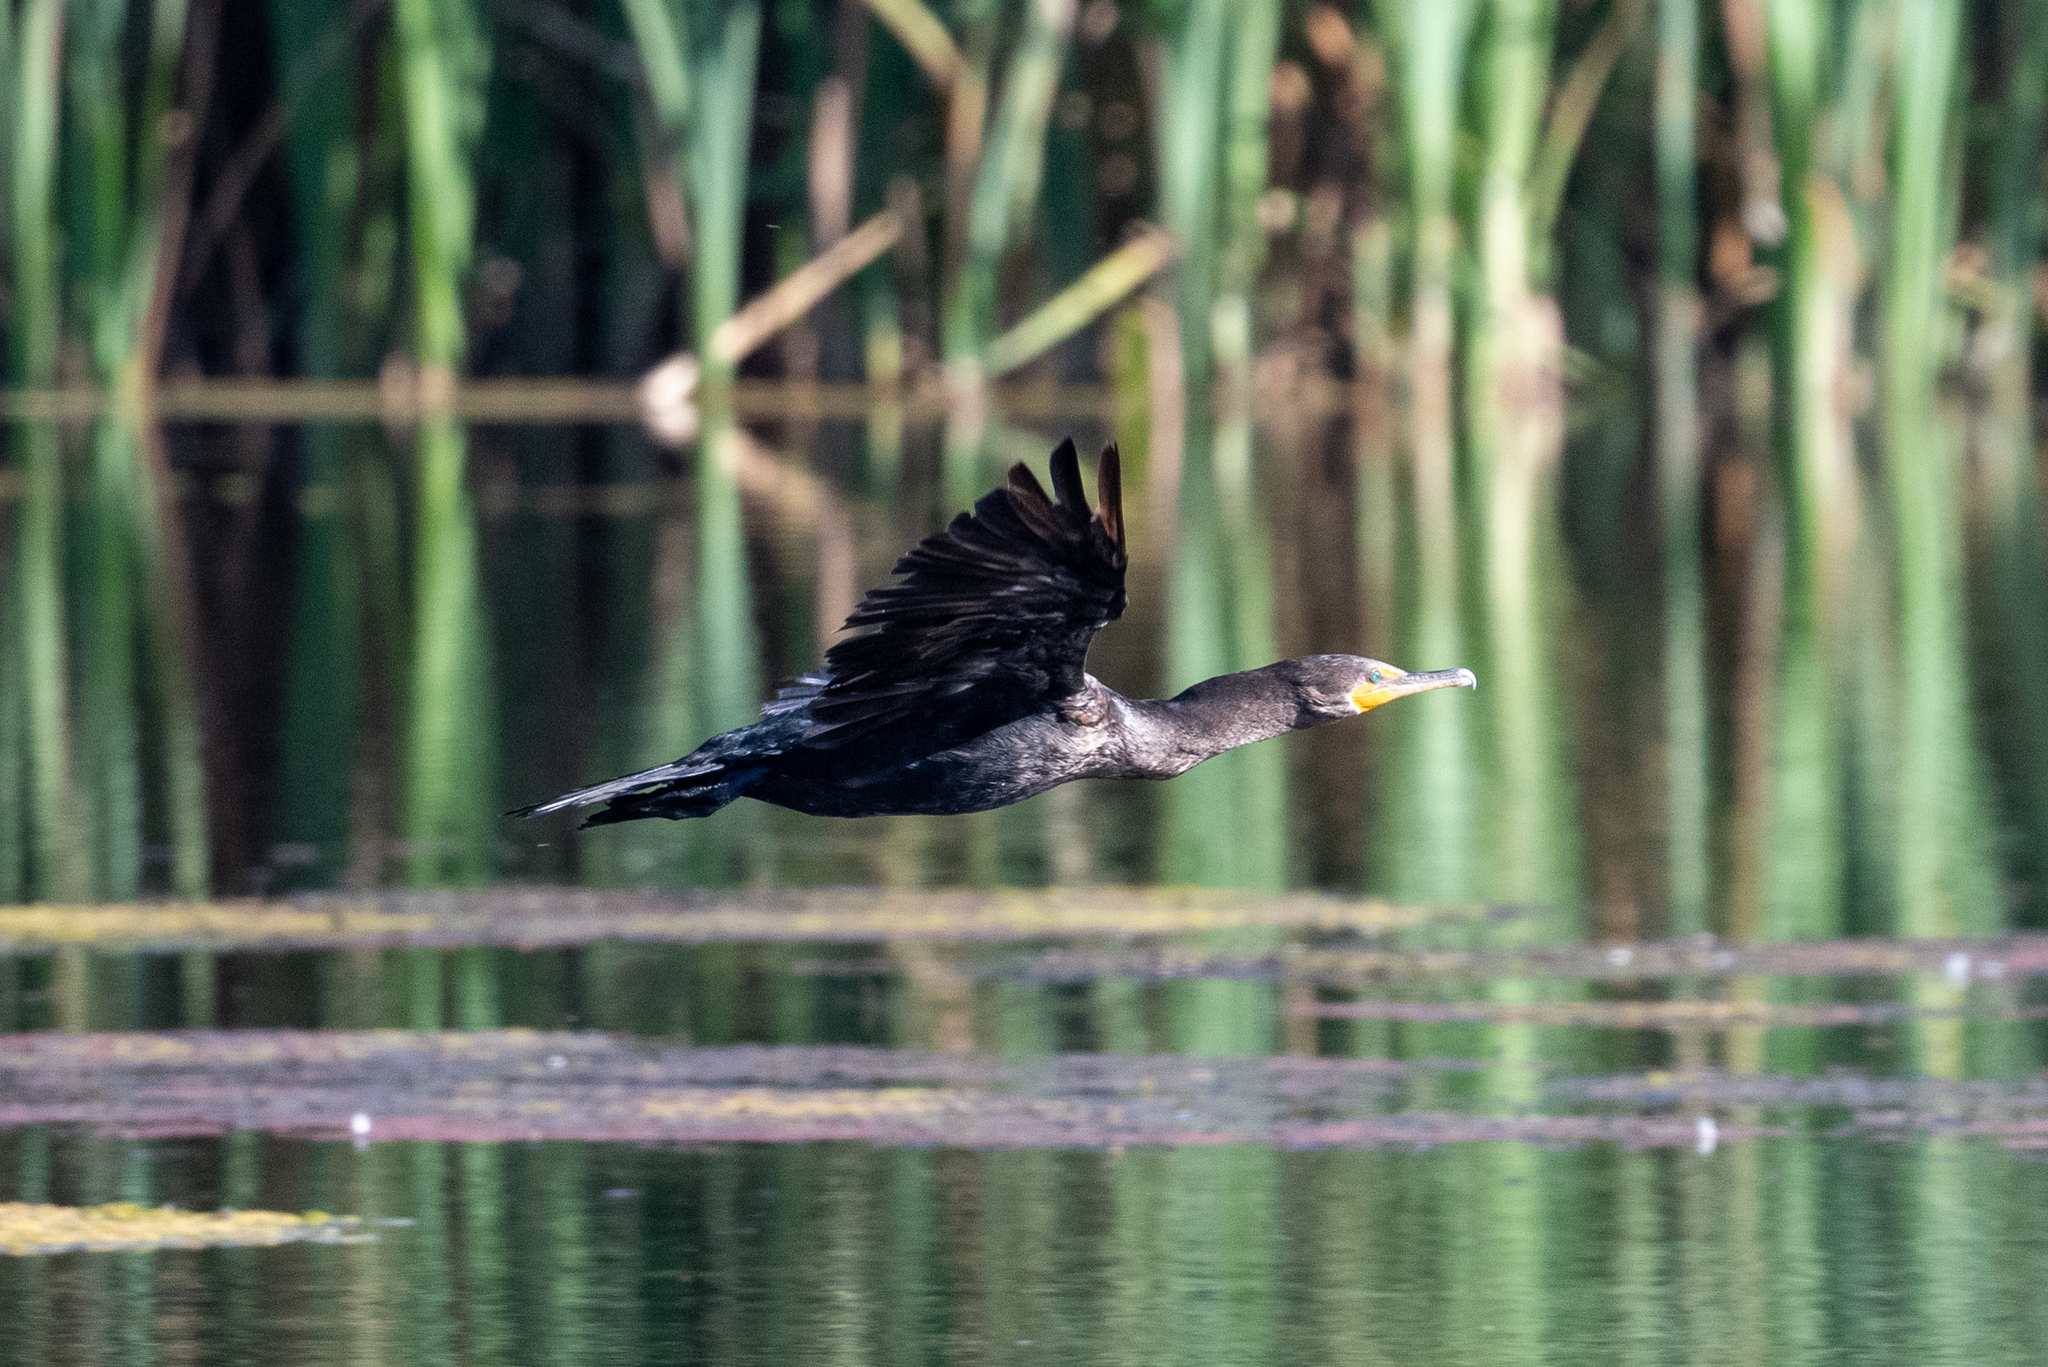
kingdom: Animalia
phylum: Chordata
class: Aves
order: Suliformes
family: Phalacrocoracidae
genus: Phalacrocorax
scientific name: Phalacrocorax auritus
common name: Double-crested cormorant
